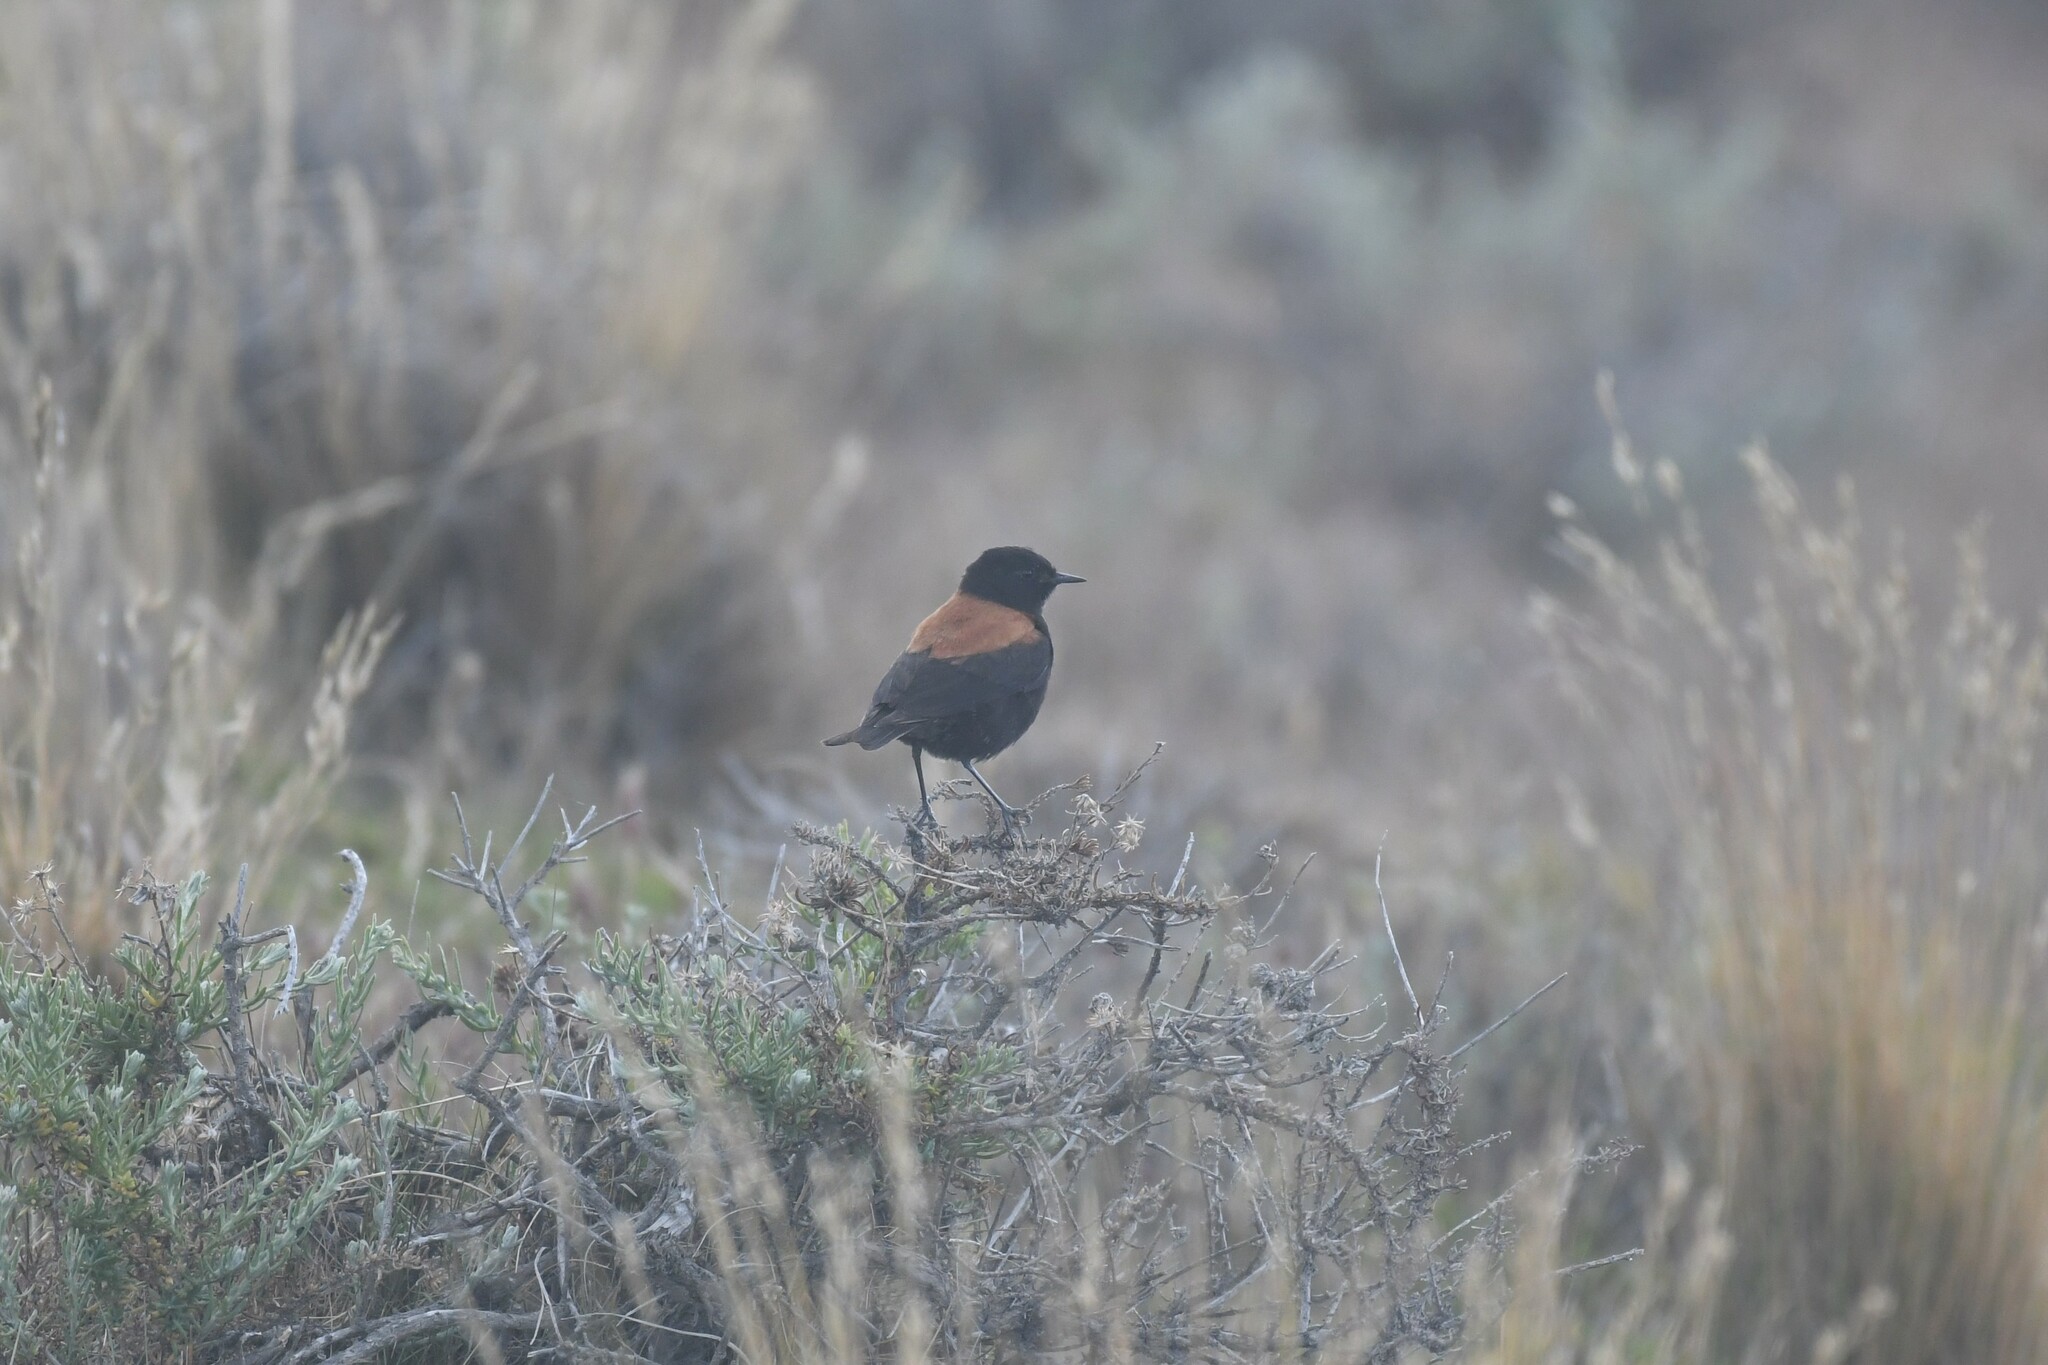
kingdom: Animalia
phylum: Chordata
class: Aves
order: Passeriformes
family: Tyrannidae
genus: Lessonia
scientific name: Lessonia rufa
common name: Austral negrito
